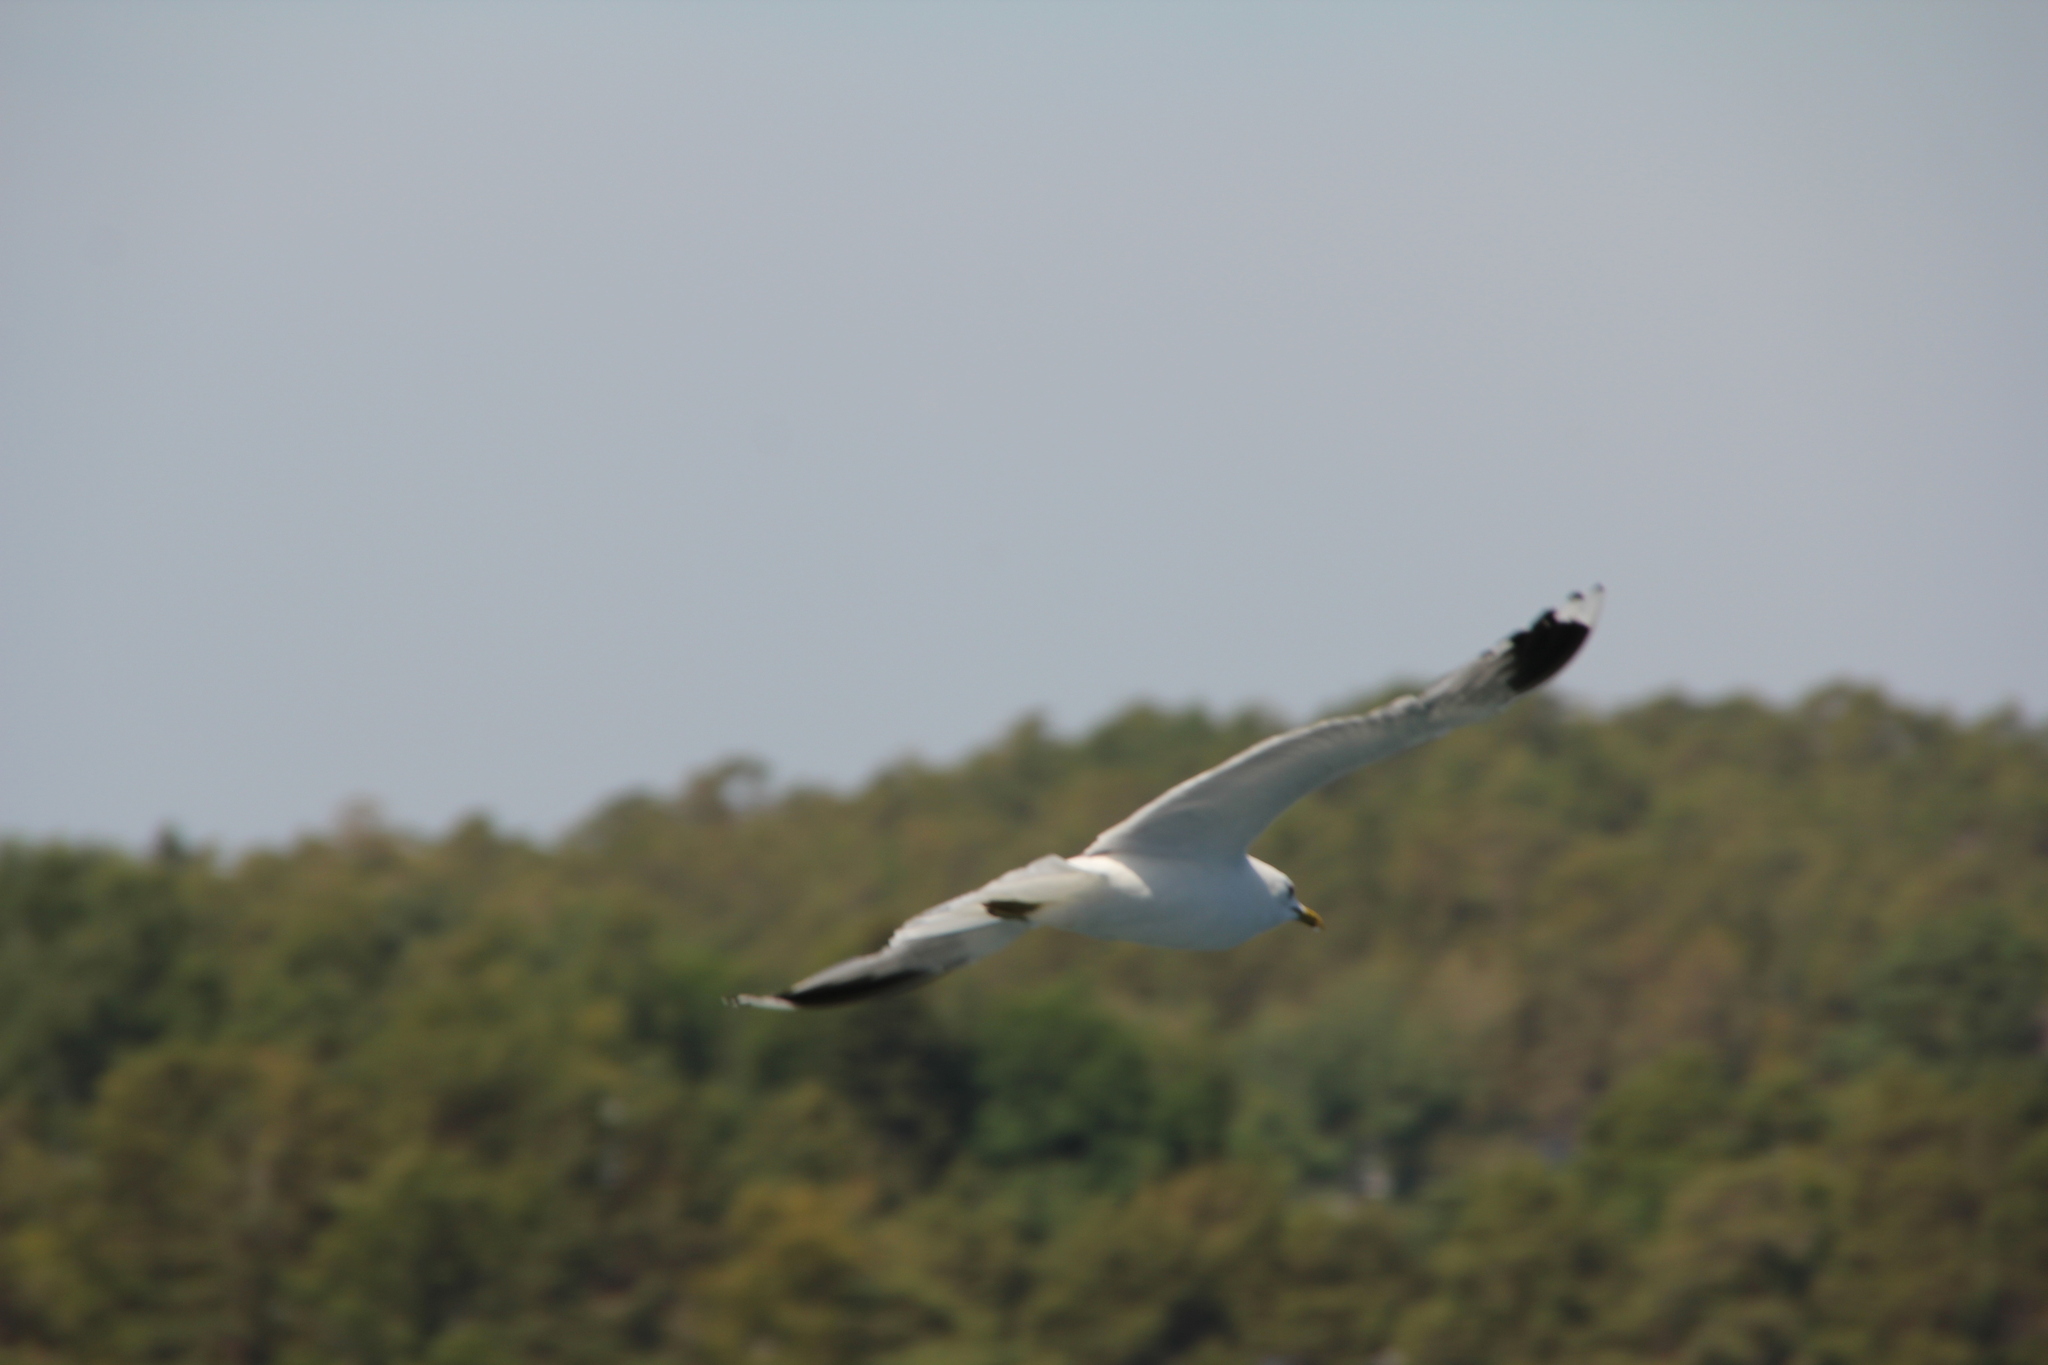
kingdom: Animalia
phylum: Chordata
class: Aves
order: Charadriiformes
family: Laridae
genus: Larus
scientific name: Larus canus
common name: Mew gull
